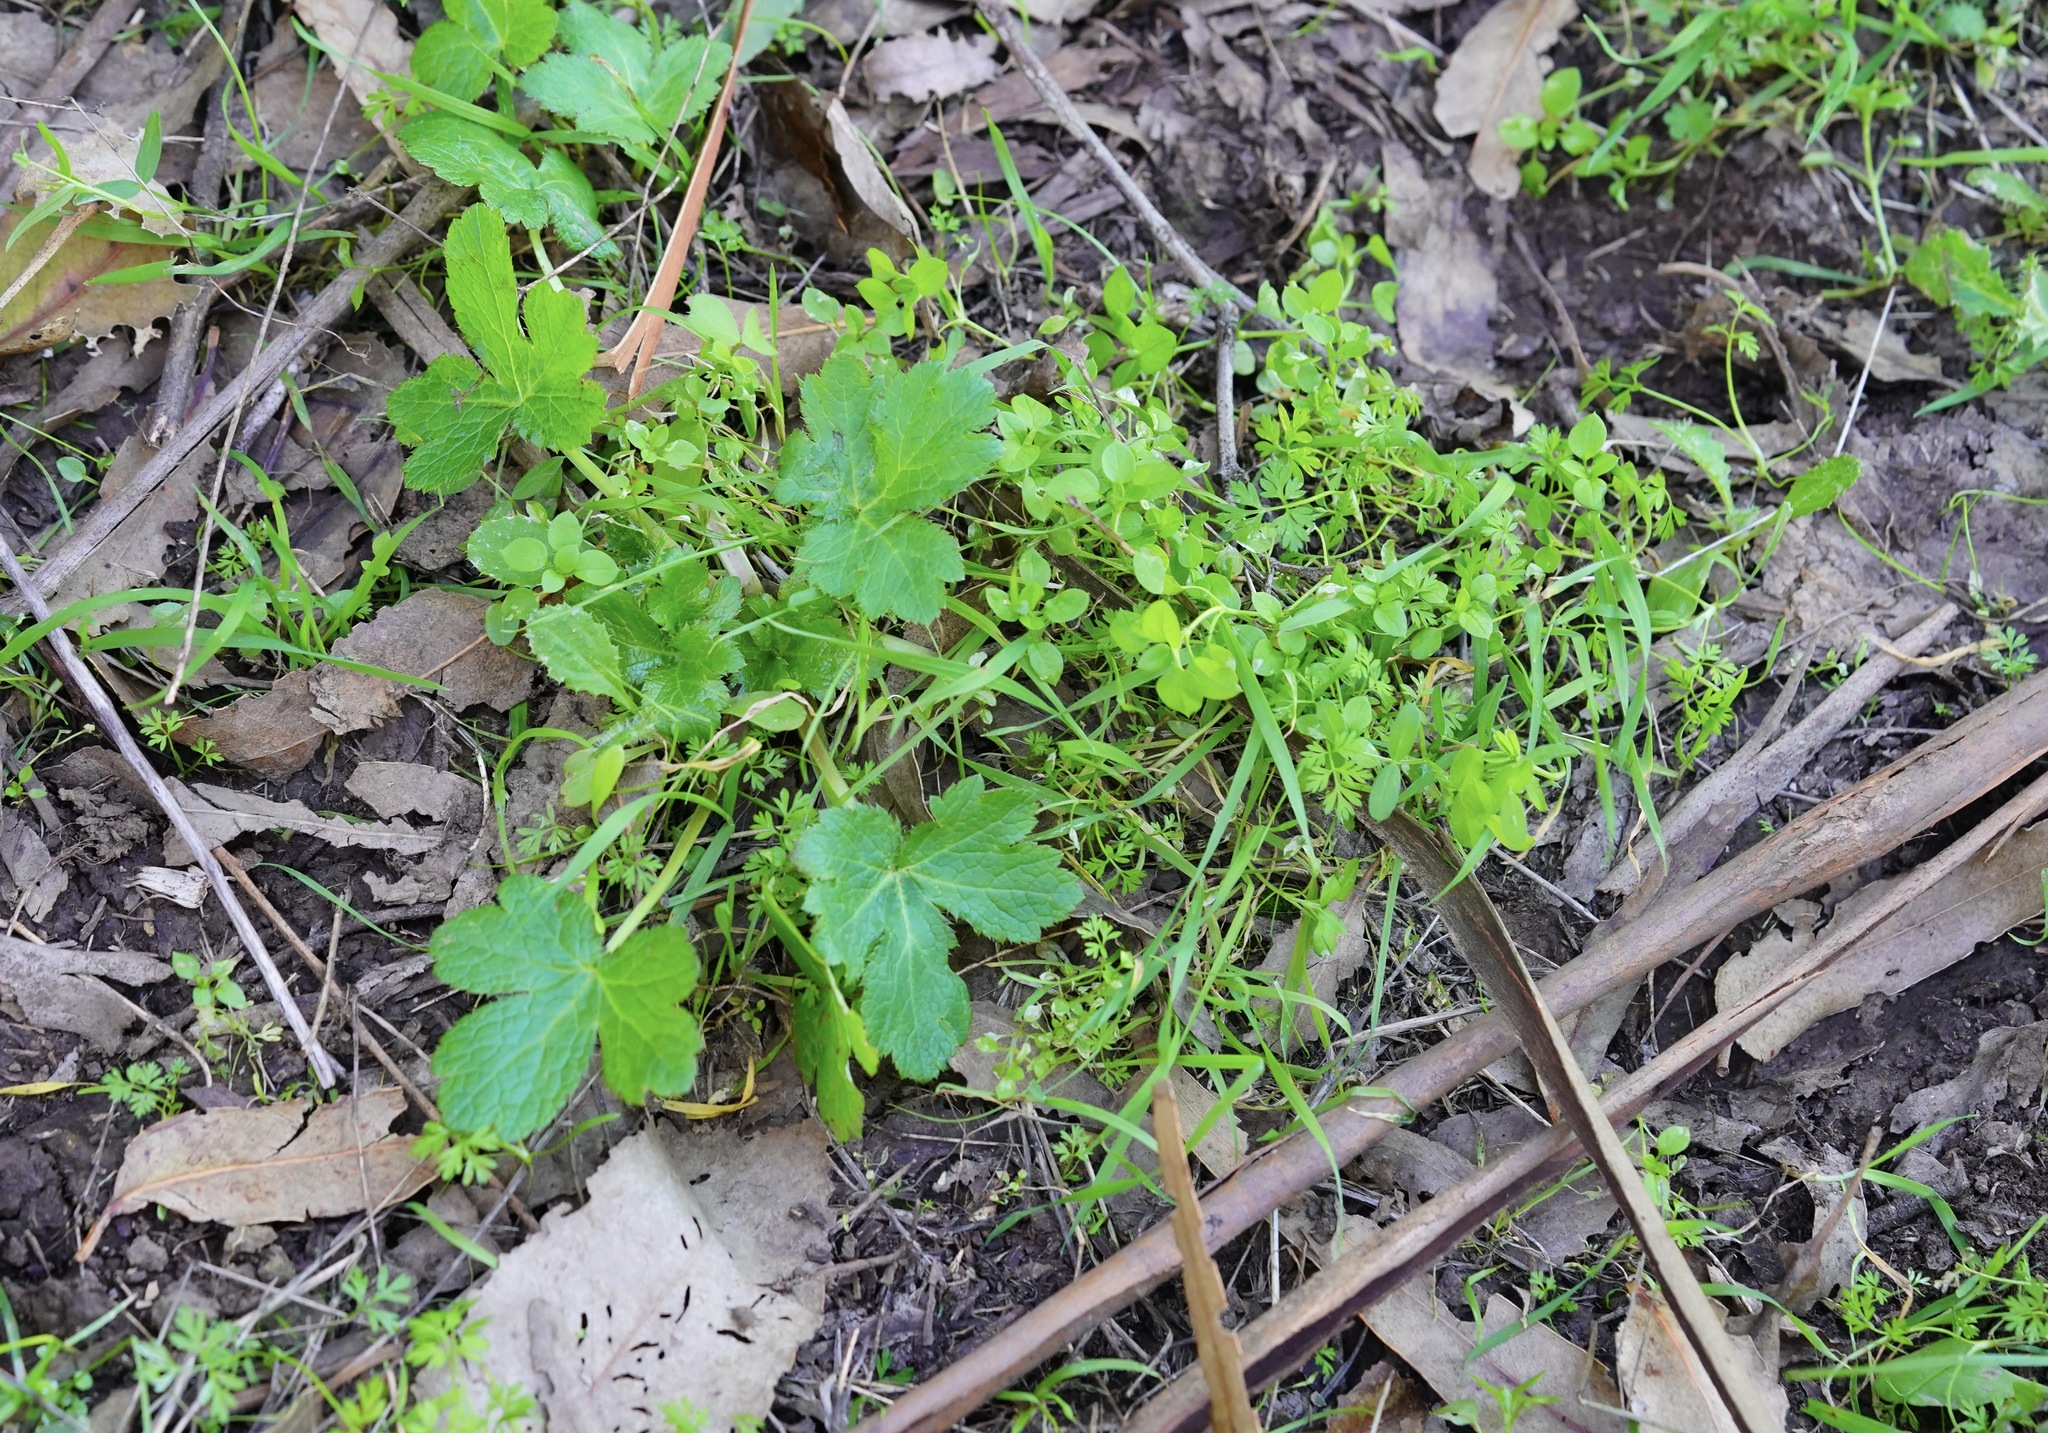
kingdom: Plantae
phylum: Tracheophyta
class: Magnoliopsida
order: Apiales
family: Apiaceae
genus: Sanicula
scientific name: Sanicula crassicaulis
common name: Western snakeroot
